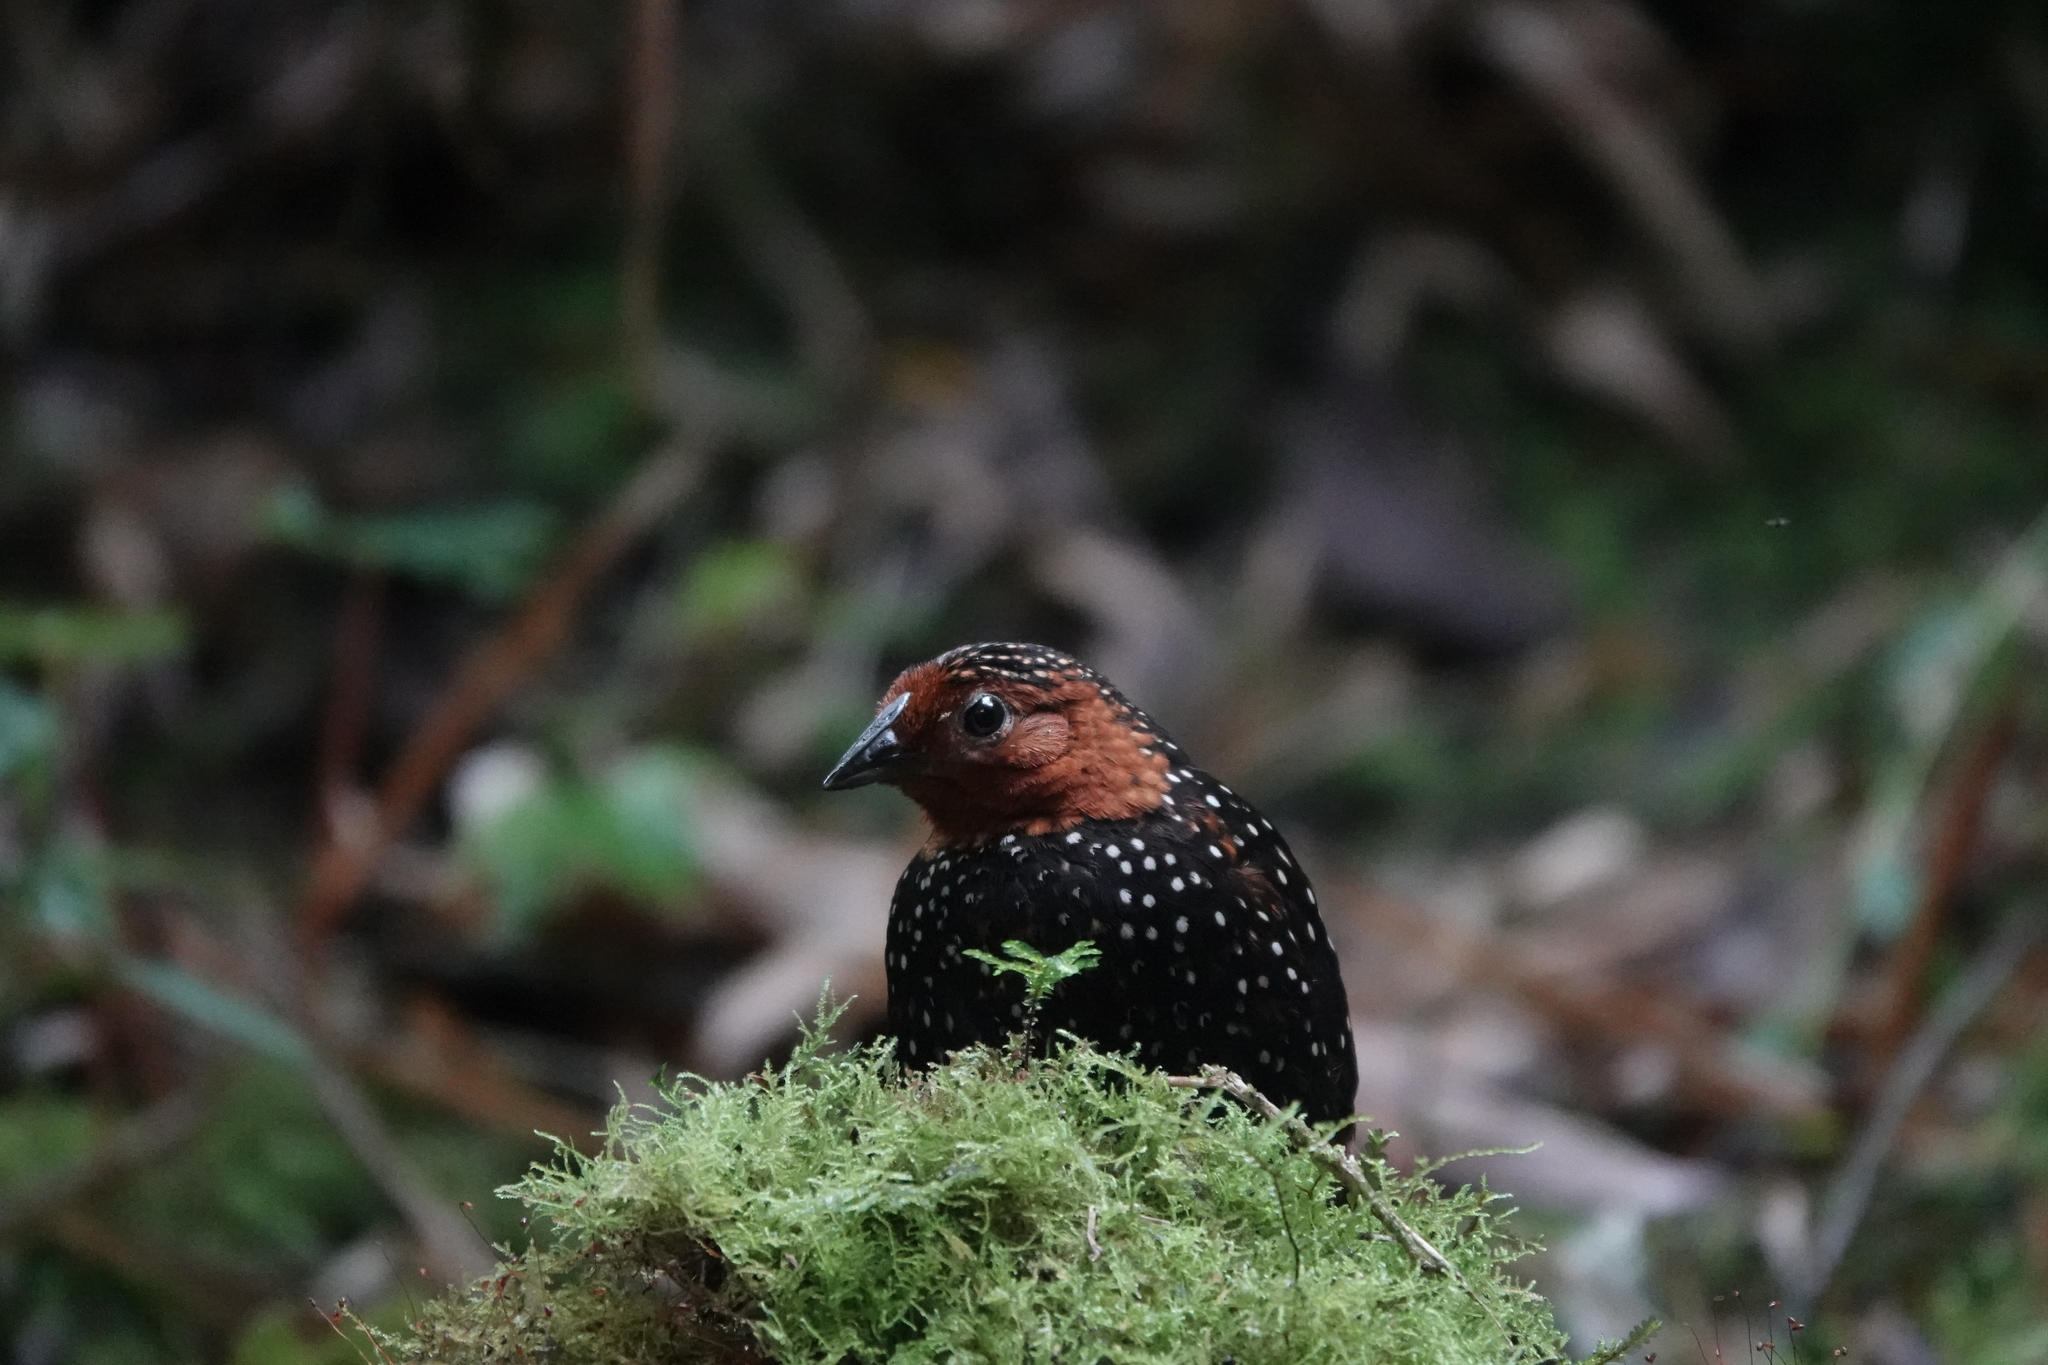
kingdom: Animalia
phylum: Chordata
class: Aves
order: Passeriformes
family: Rhinocryptidae
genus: Acropternis
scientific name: Acropternis orthonyx
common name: Ocellated tapaculo
